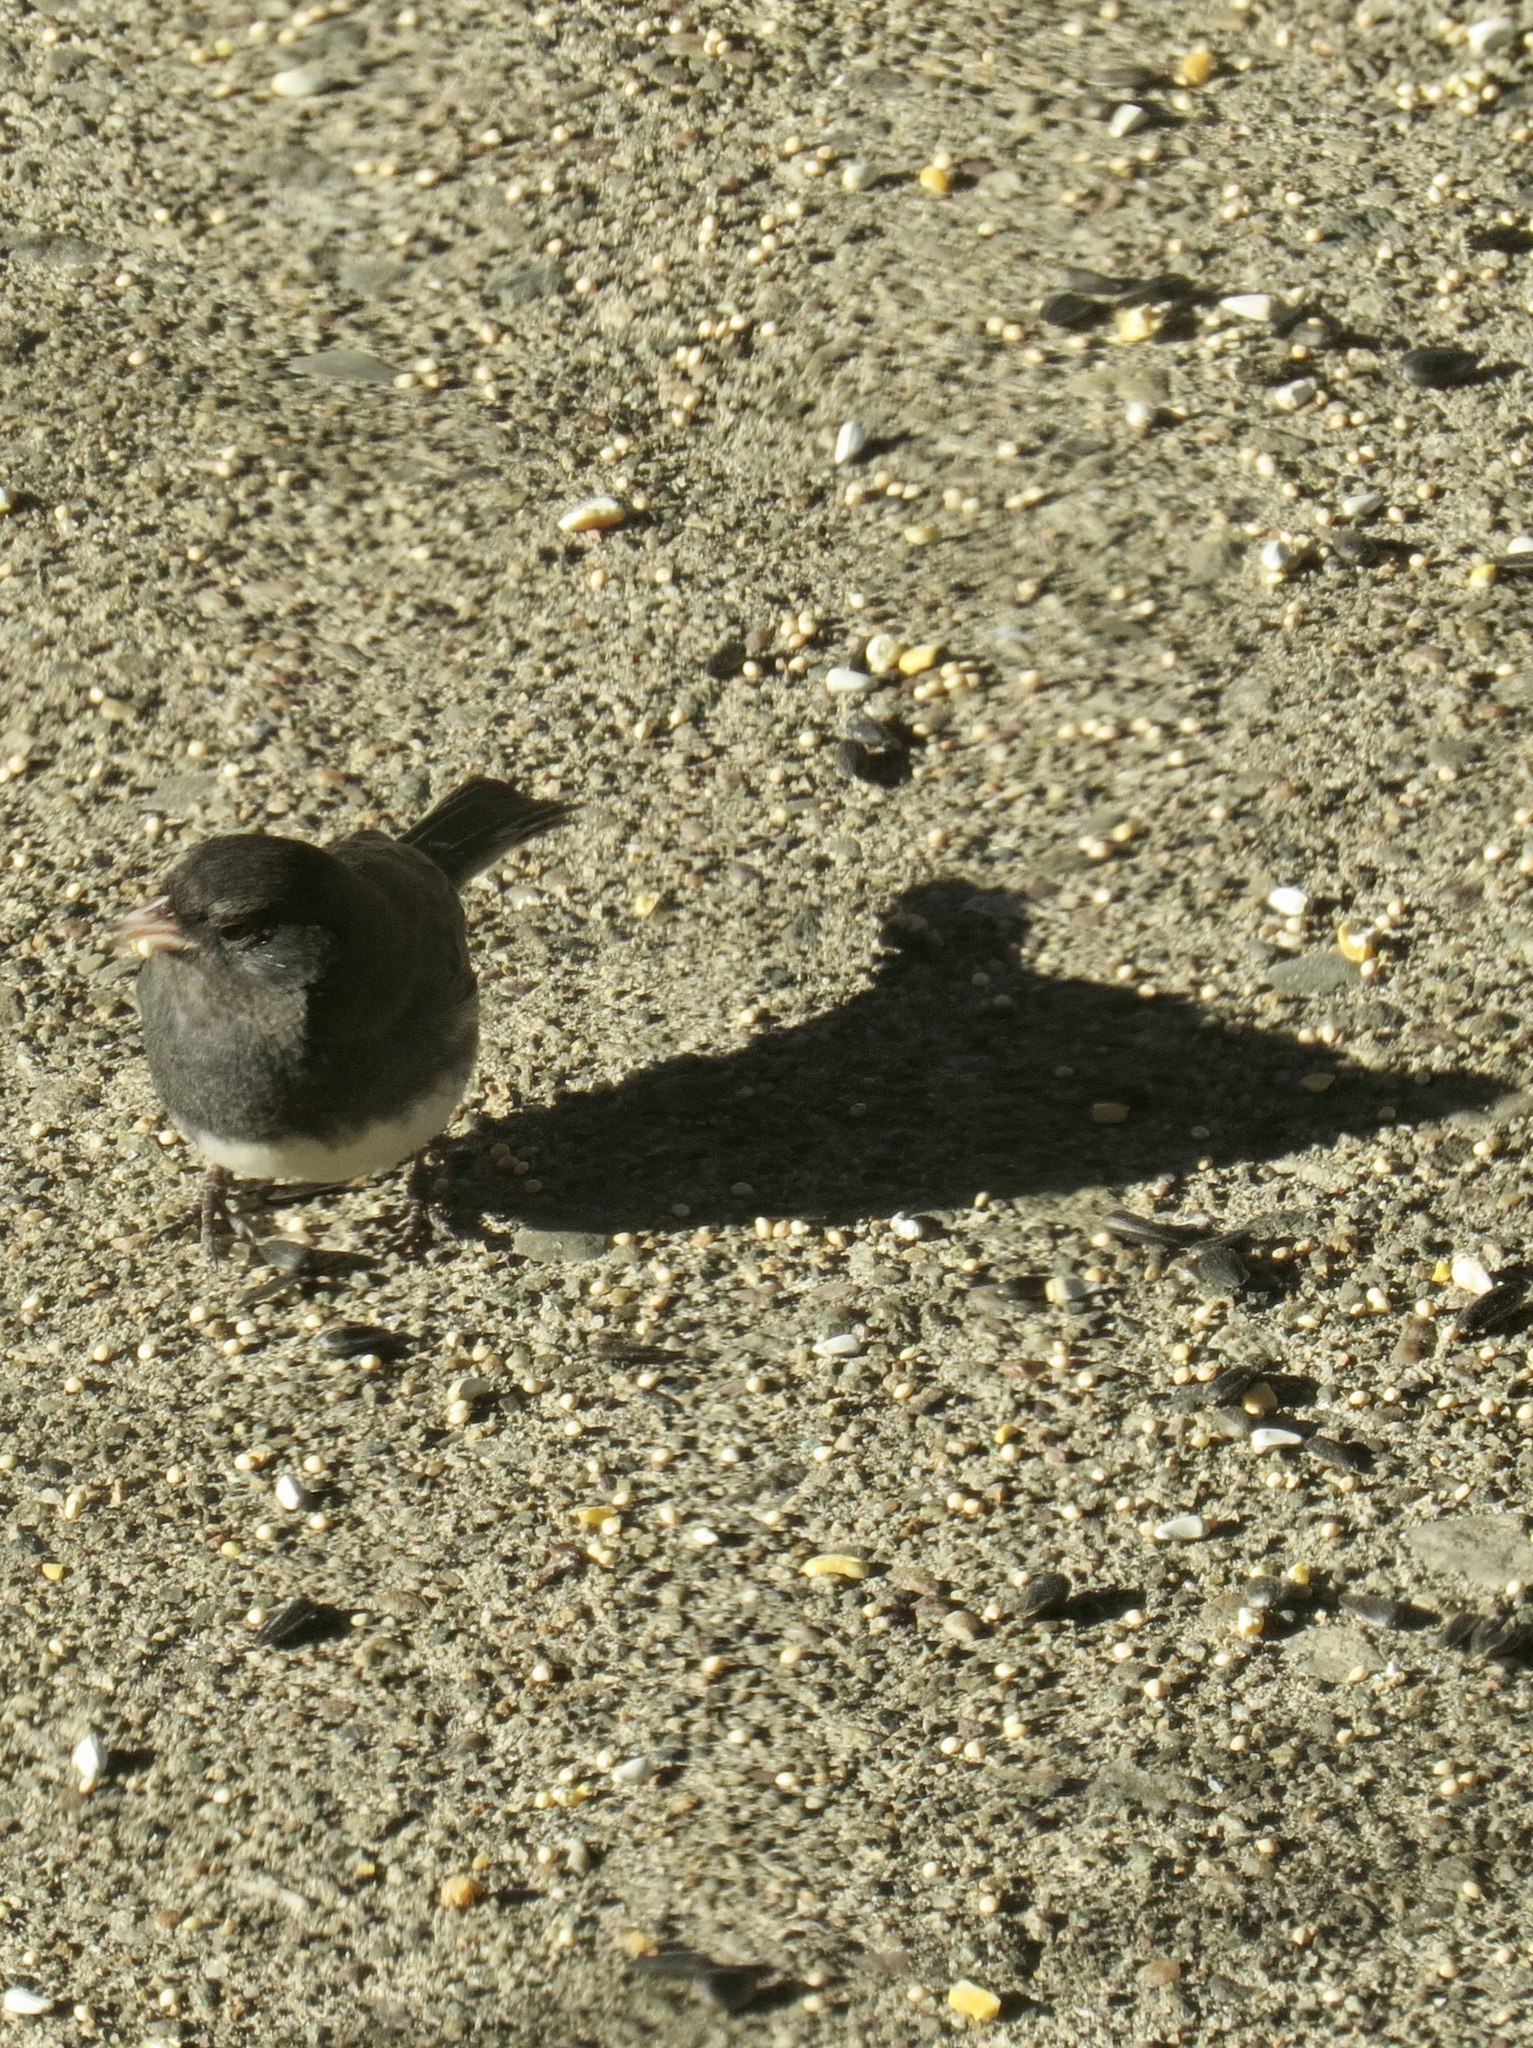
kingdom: Animalia
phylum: Chordata
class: Aves
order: Passeriformes
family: Passerellidae
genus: Junco
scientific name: Junco hyemalis
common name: Dark-eyed junco
